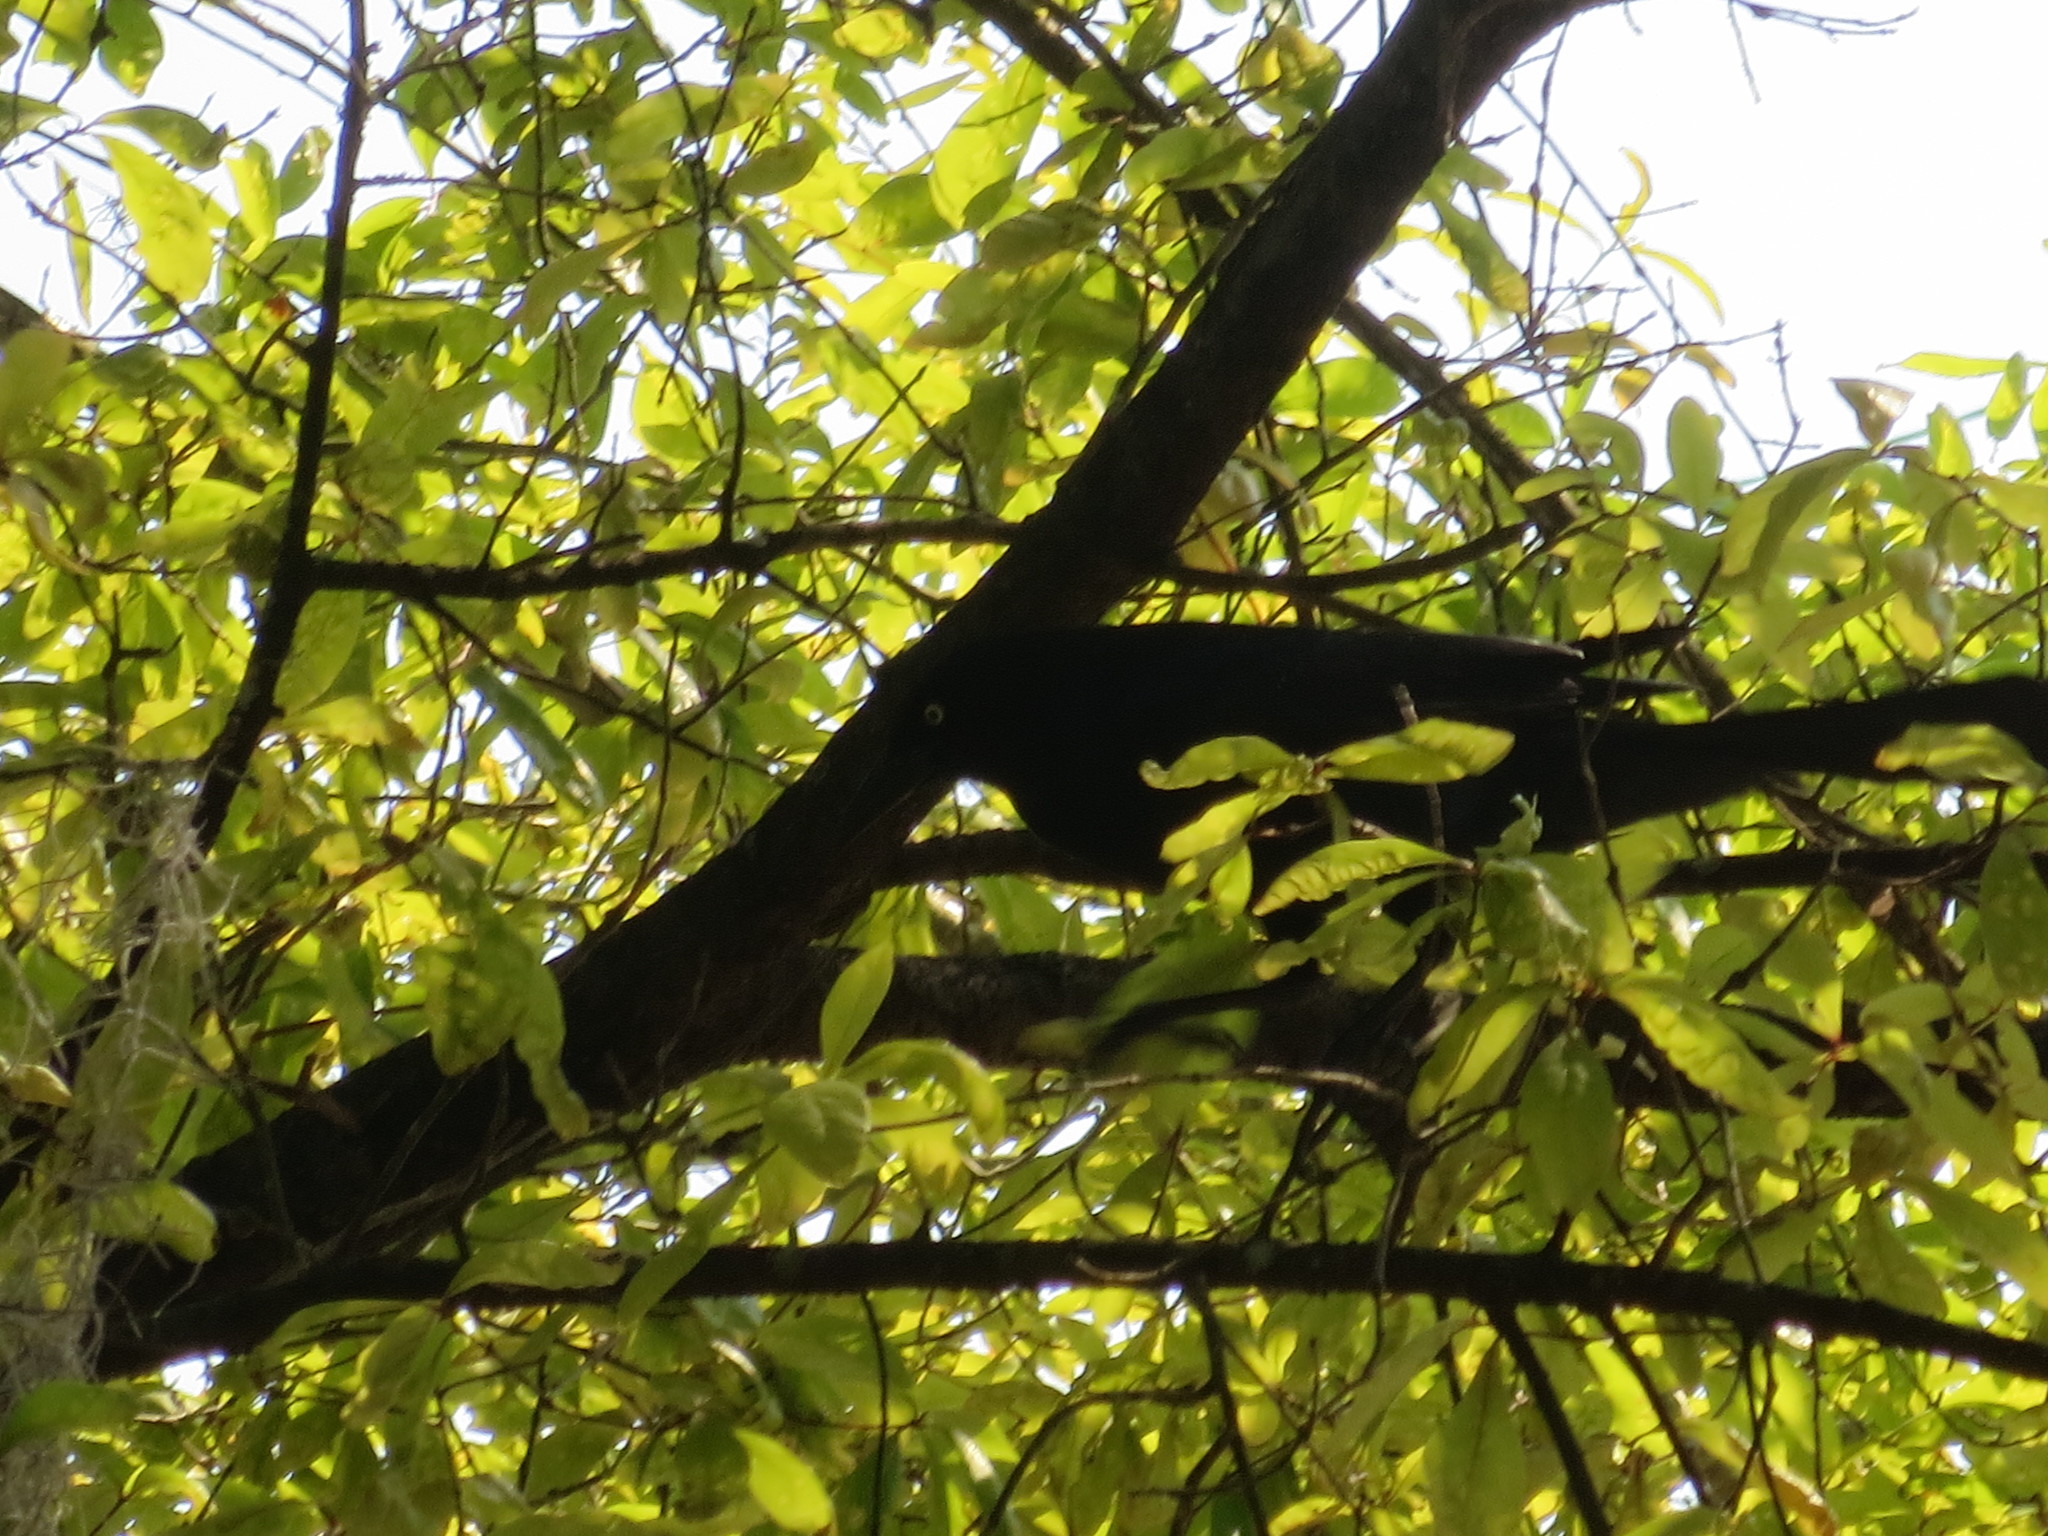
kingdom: Animalia
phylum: Chordata
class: Aves
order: Passeriformes
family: Icteridae
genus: Quiscalus
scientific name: Quiscalus major
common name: Boat-tailed grackle
